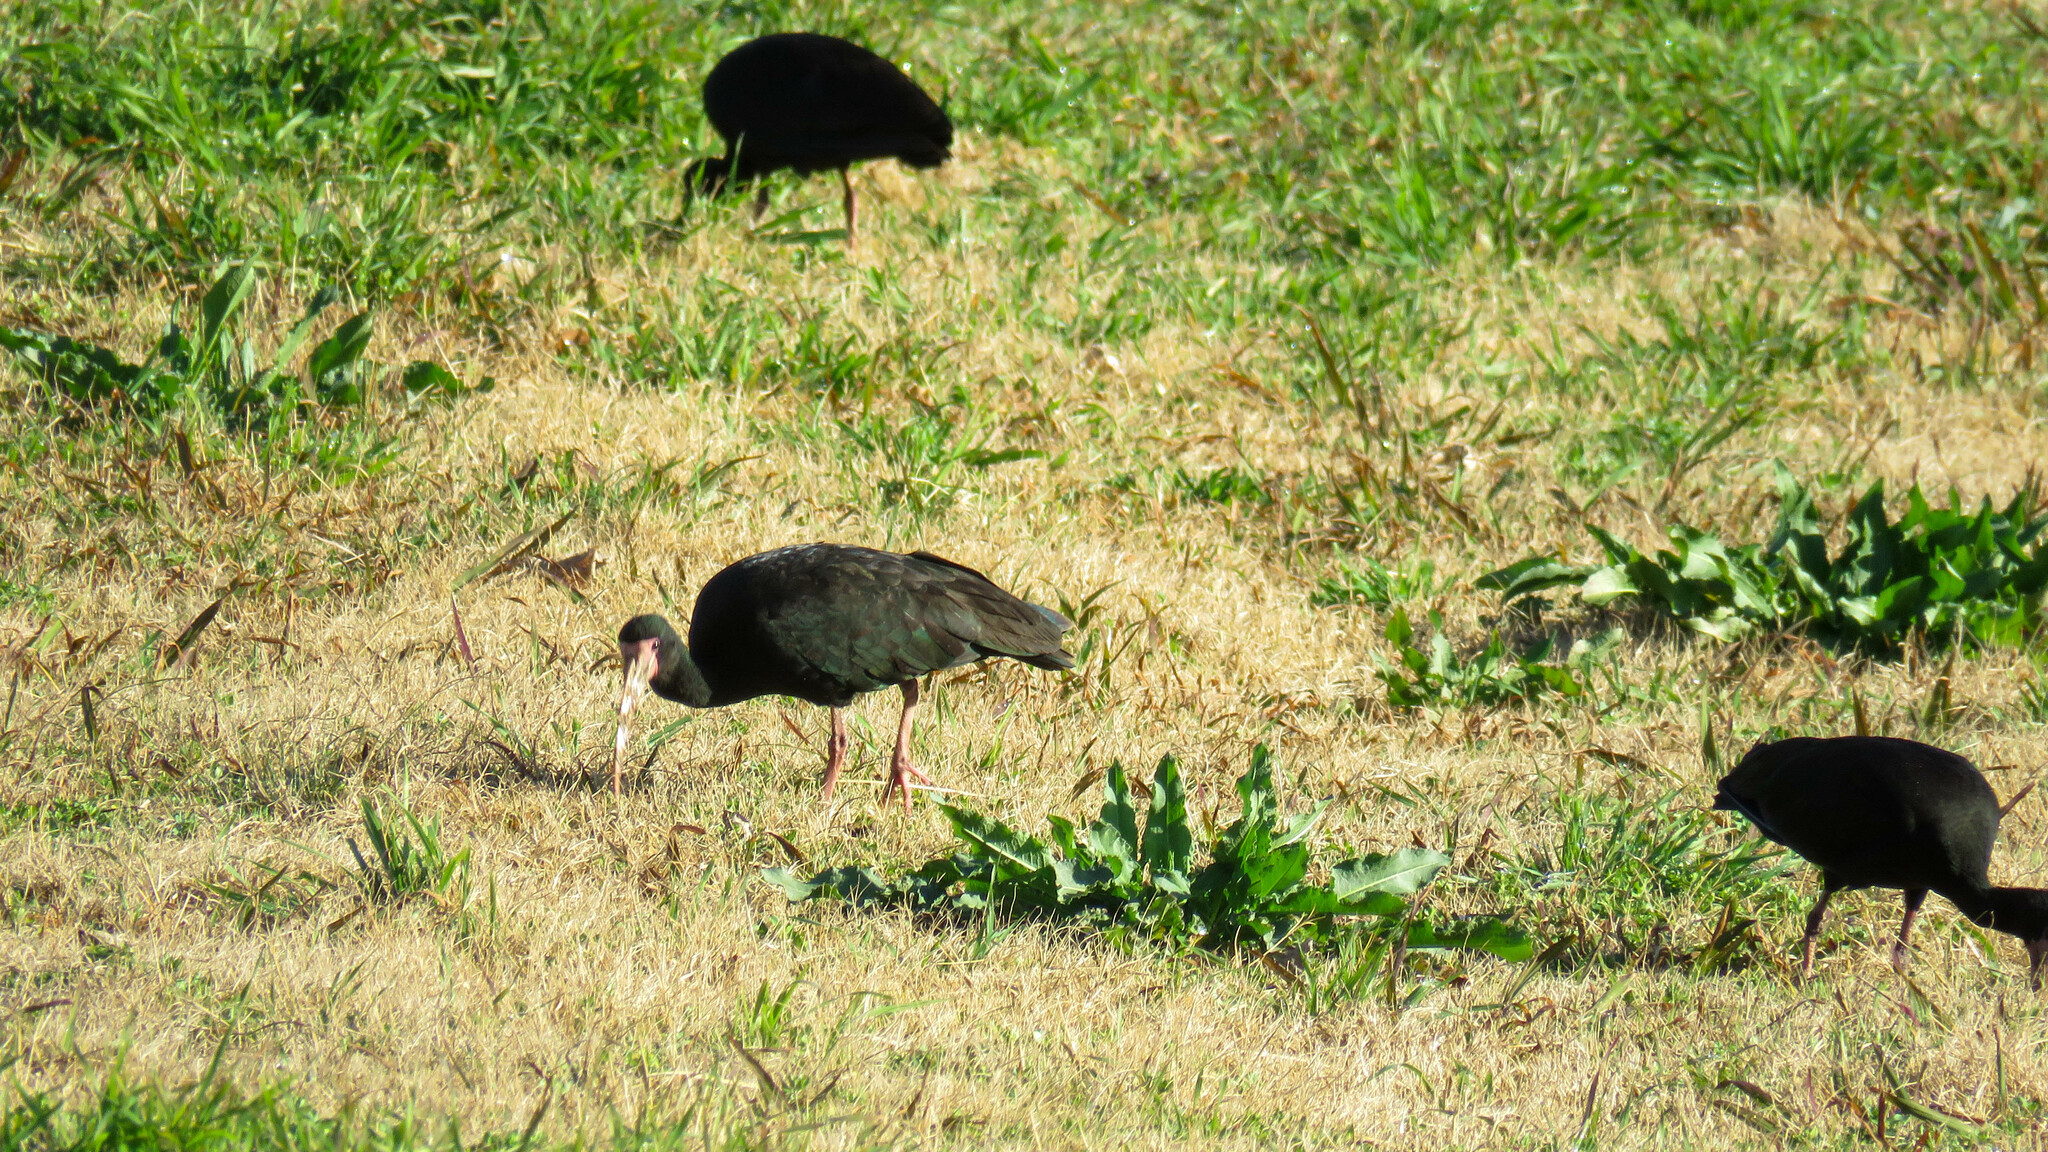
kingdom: Animalia
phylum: Chordata
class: Aves
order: Pelecaniformes
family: Threskiornithidae
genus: Phimosus
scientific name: Phimosus infuscatus
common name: Bare-faced ibis
